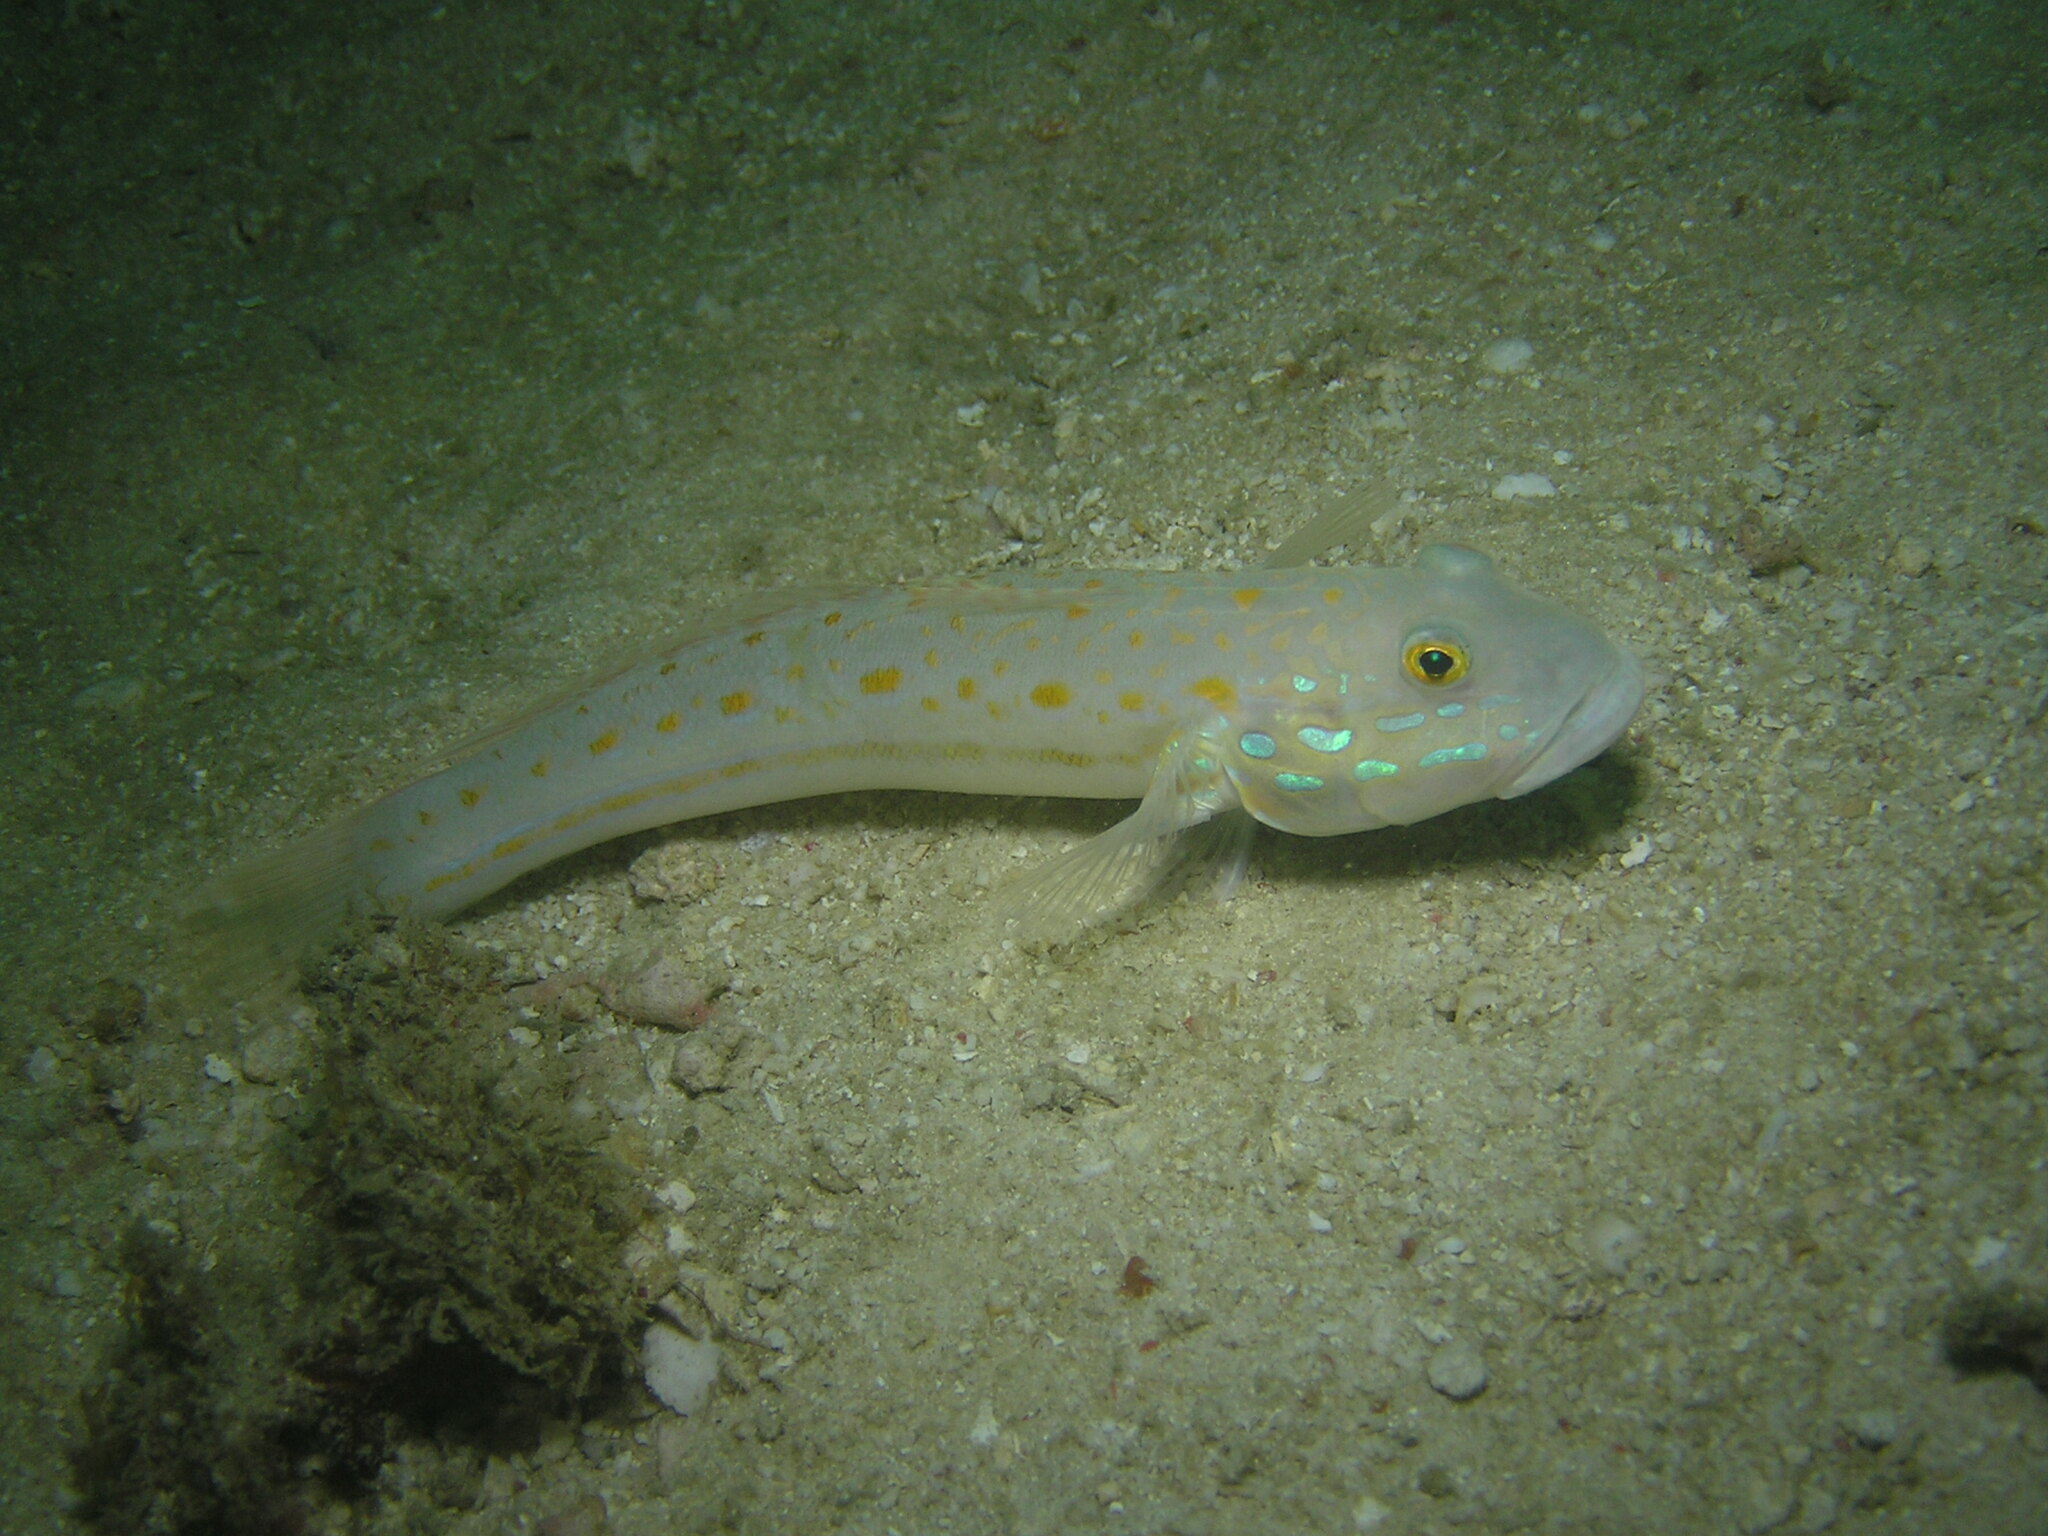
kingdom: Animalia
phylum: Chordata
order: Perciformes
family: Gobiidae
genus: Valenciennea
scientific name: Valenciennea puellaris
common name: Orange-dashed goby
